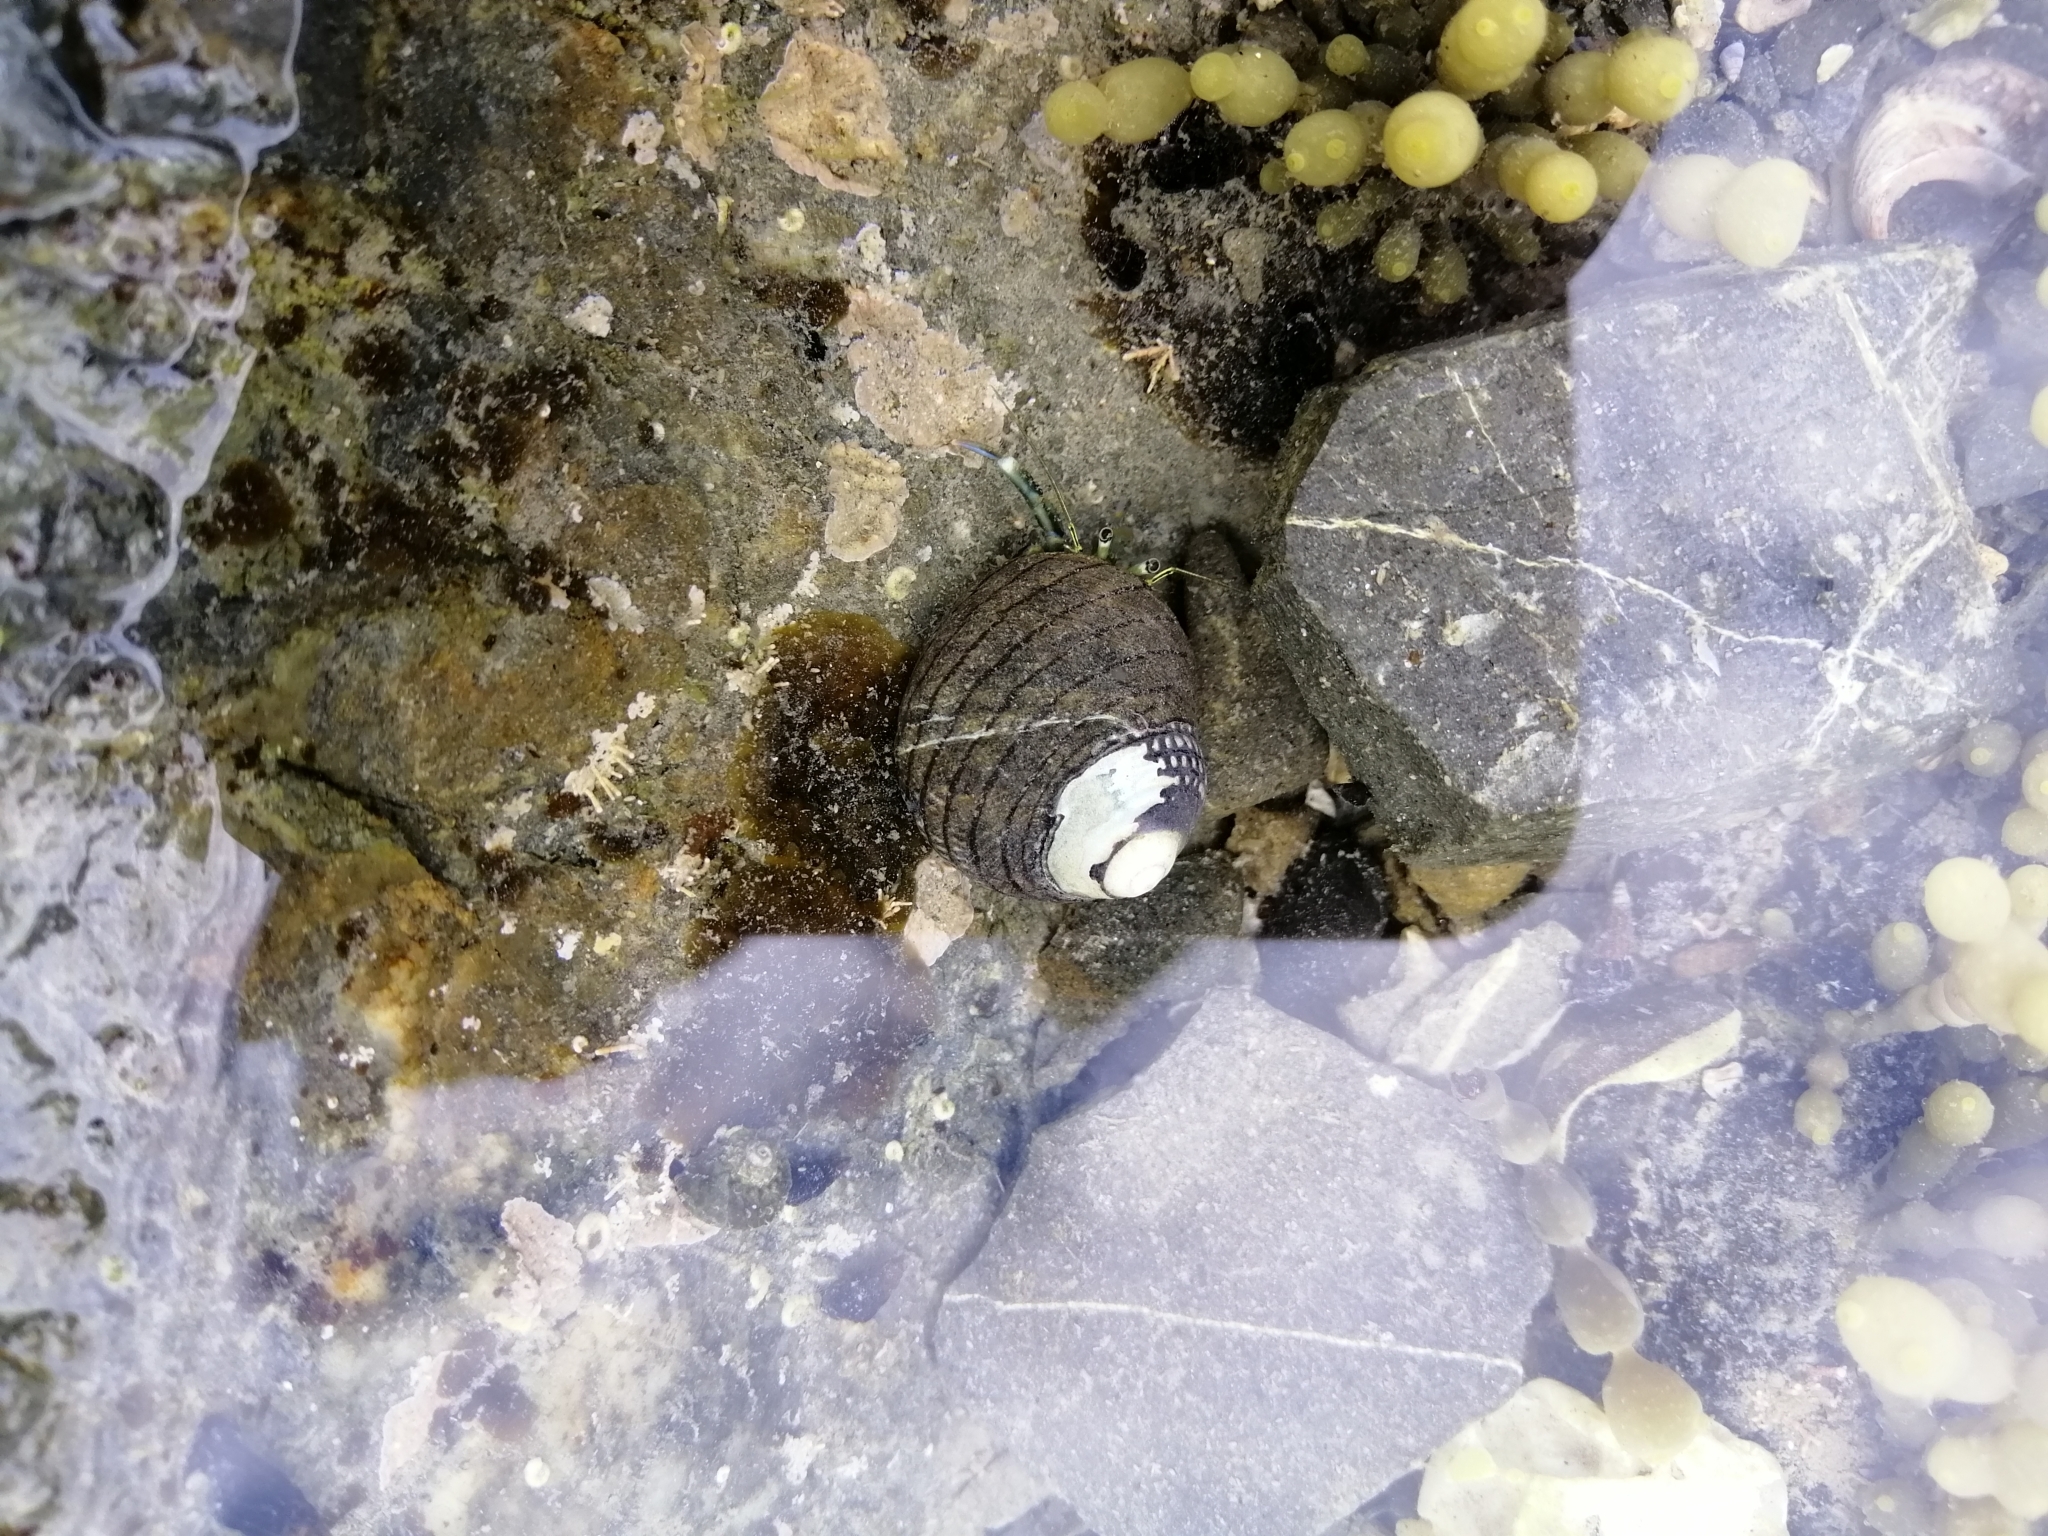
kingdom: Animalia
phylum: Arthropoda
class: Malacostraca
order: Decapoda
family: Paguridae
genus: Pagurus
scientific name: Pagurus novizealandiae
